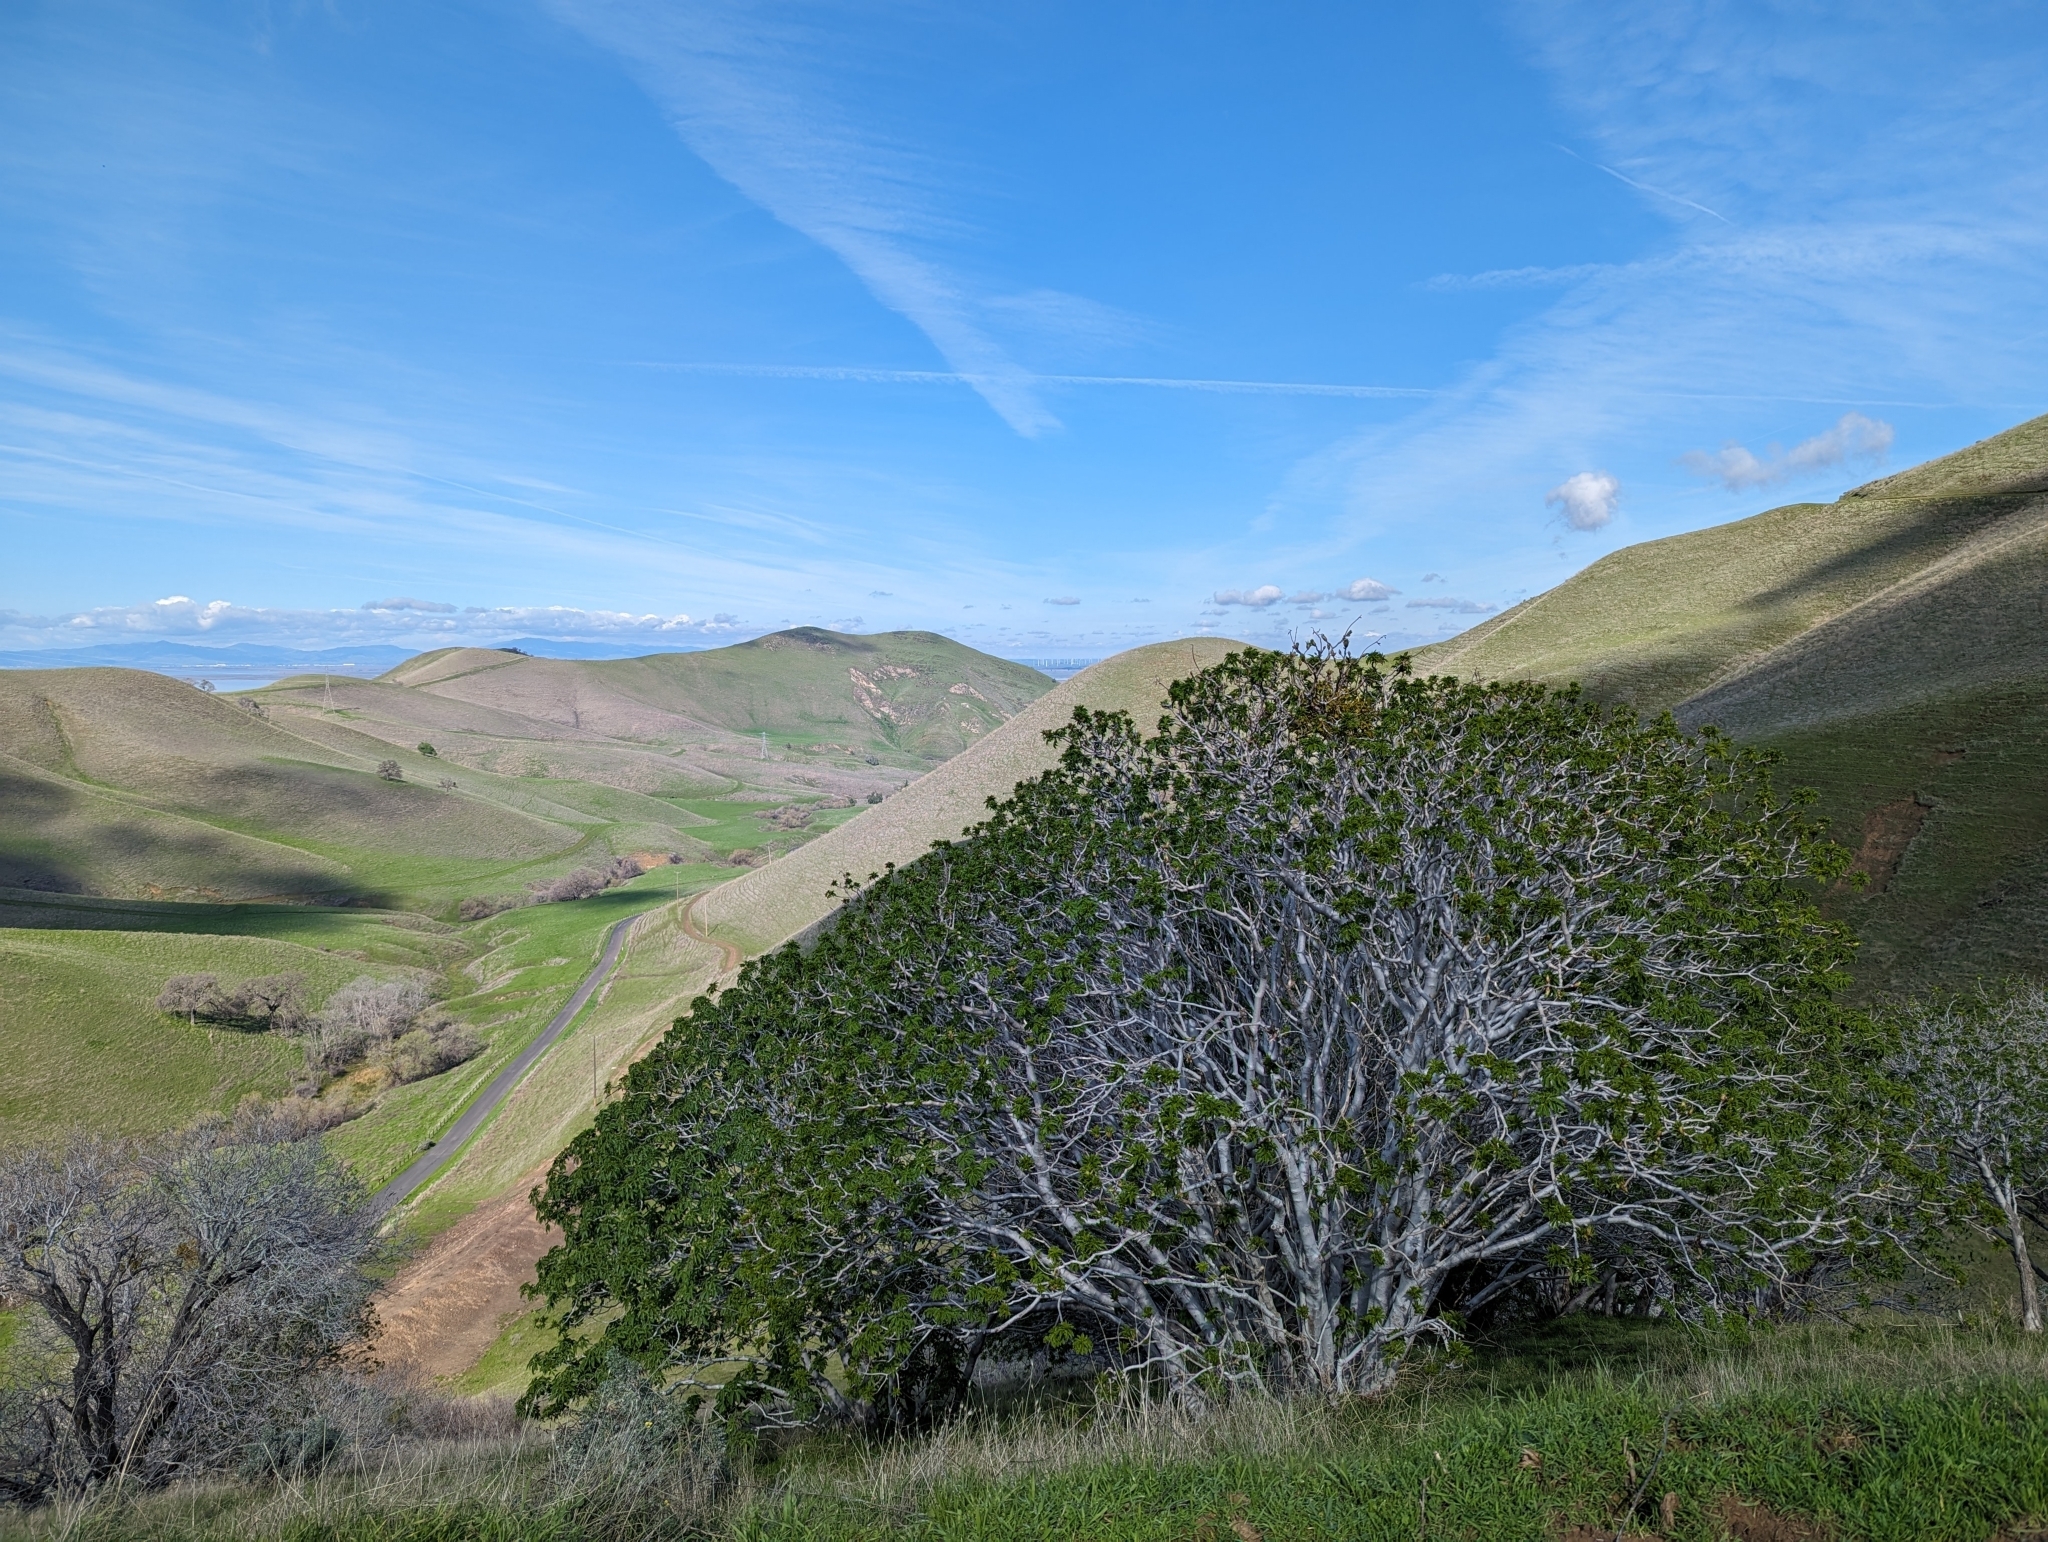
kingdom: Plantae
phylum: Tracheophyta
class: Magnoliopsida
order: Sapindales
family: Sapindaceae
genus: Aesculus
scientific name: Aesculus californica
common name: California buckeye
